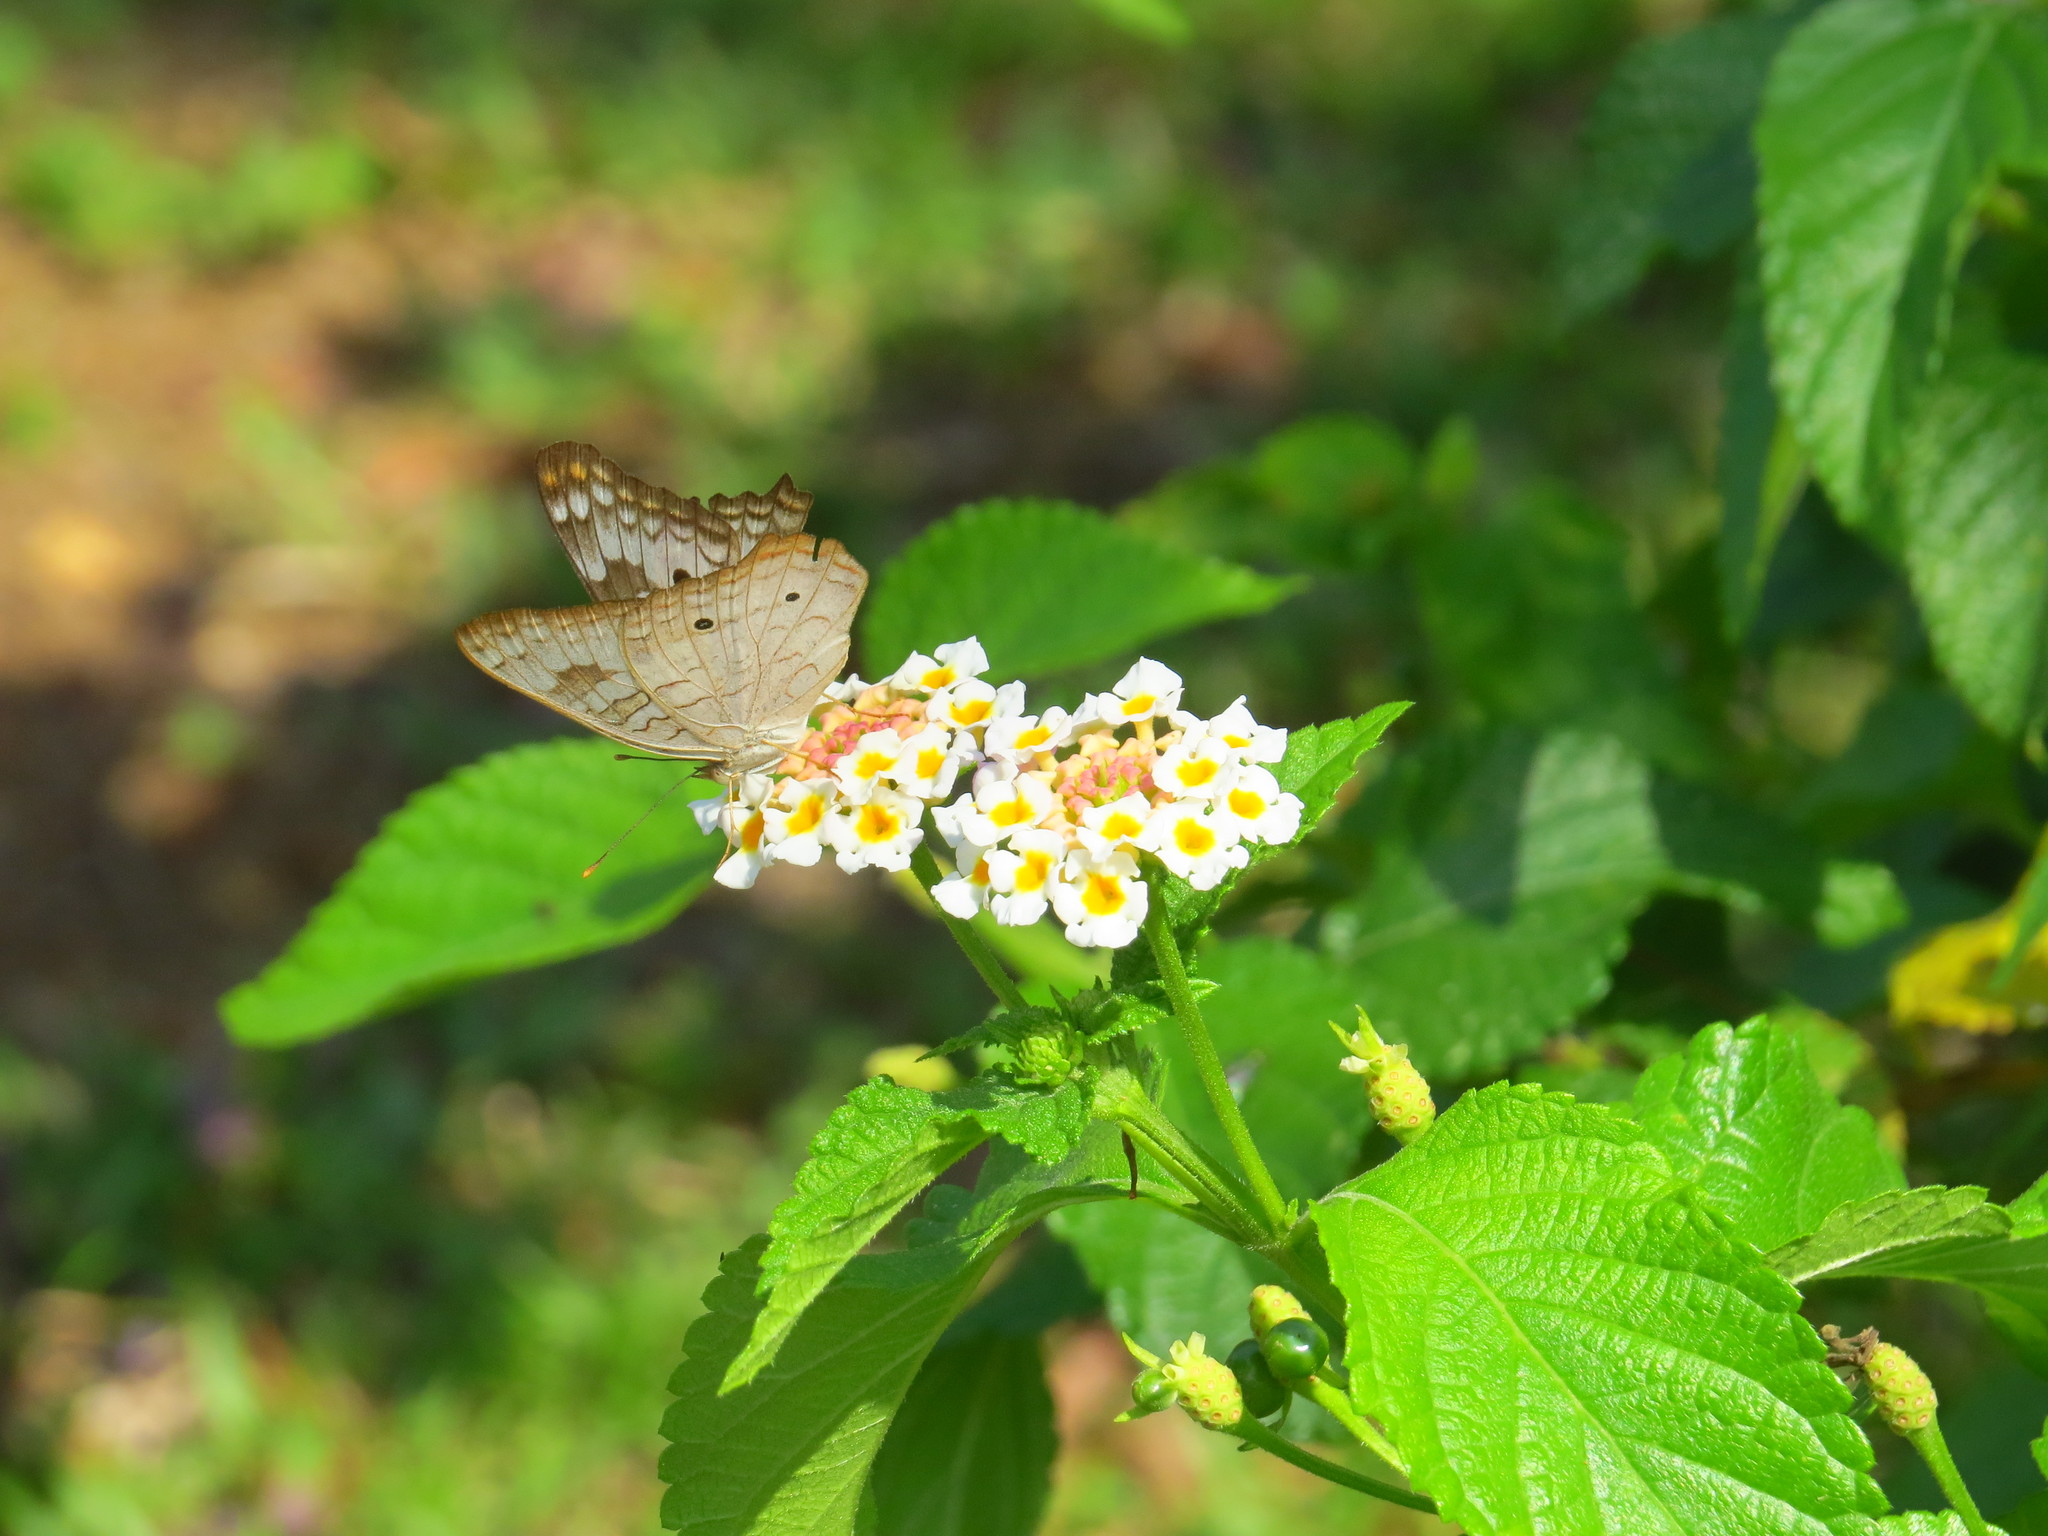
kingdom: Animalia
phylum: Arthropoda
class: Insecta
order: Lepidoptera
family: Nymphalidae
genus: Anartia
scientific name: Anartia jatrophae
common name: White peacock
